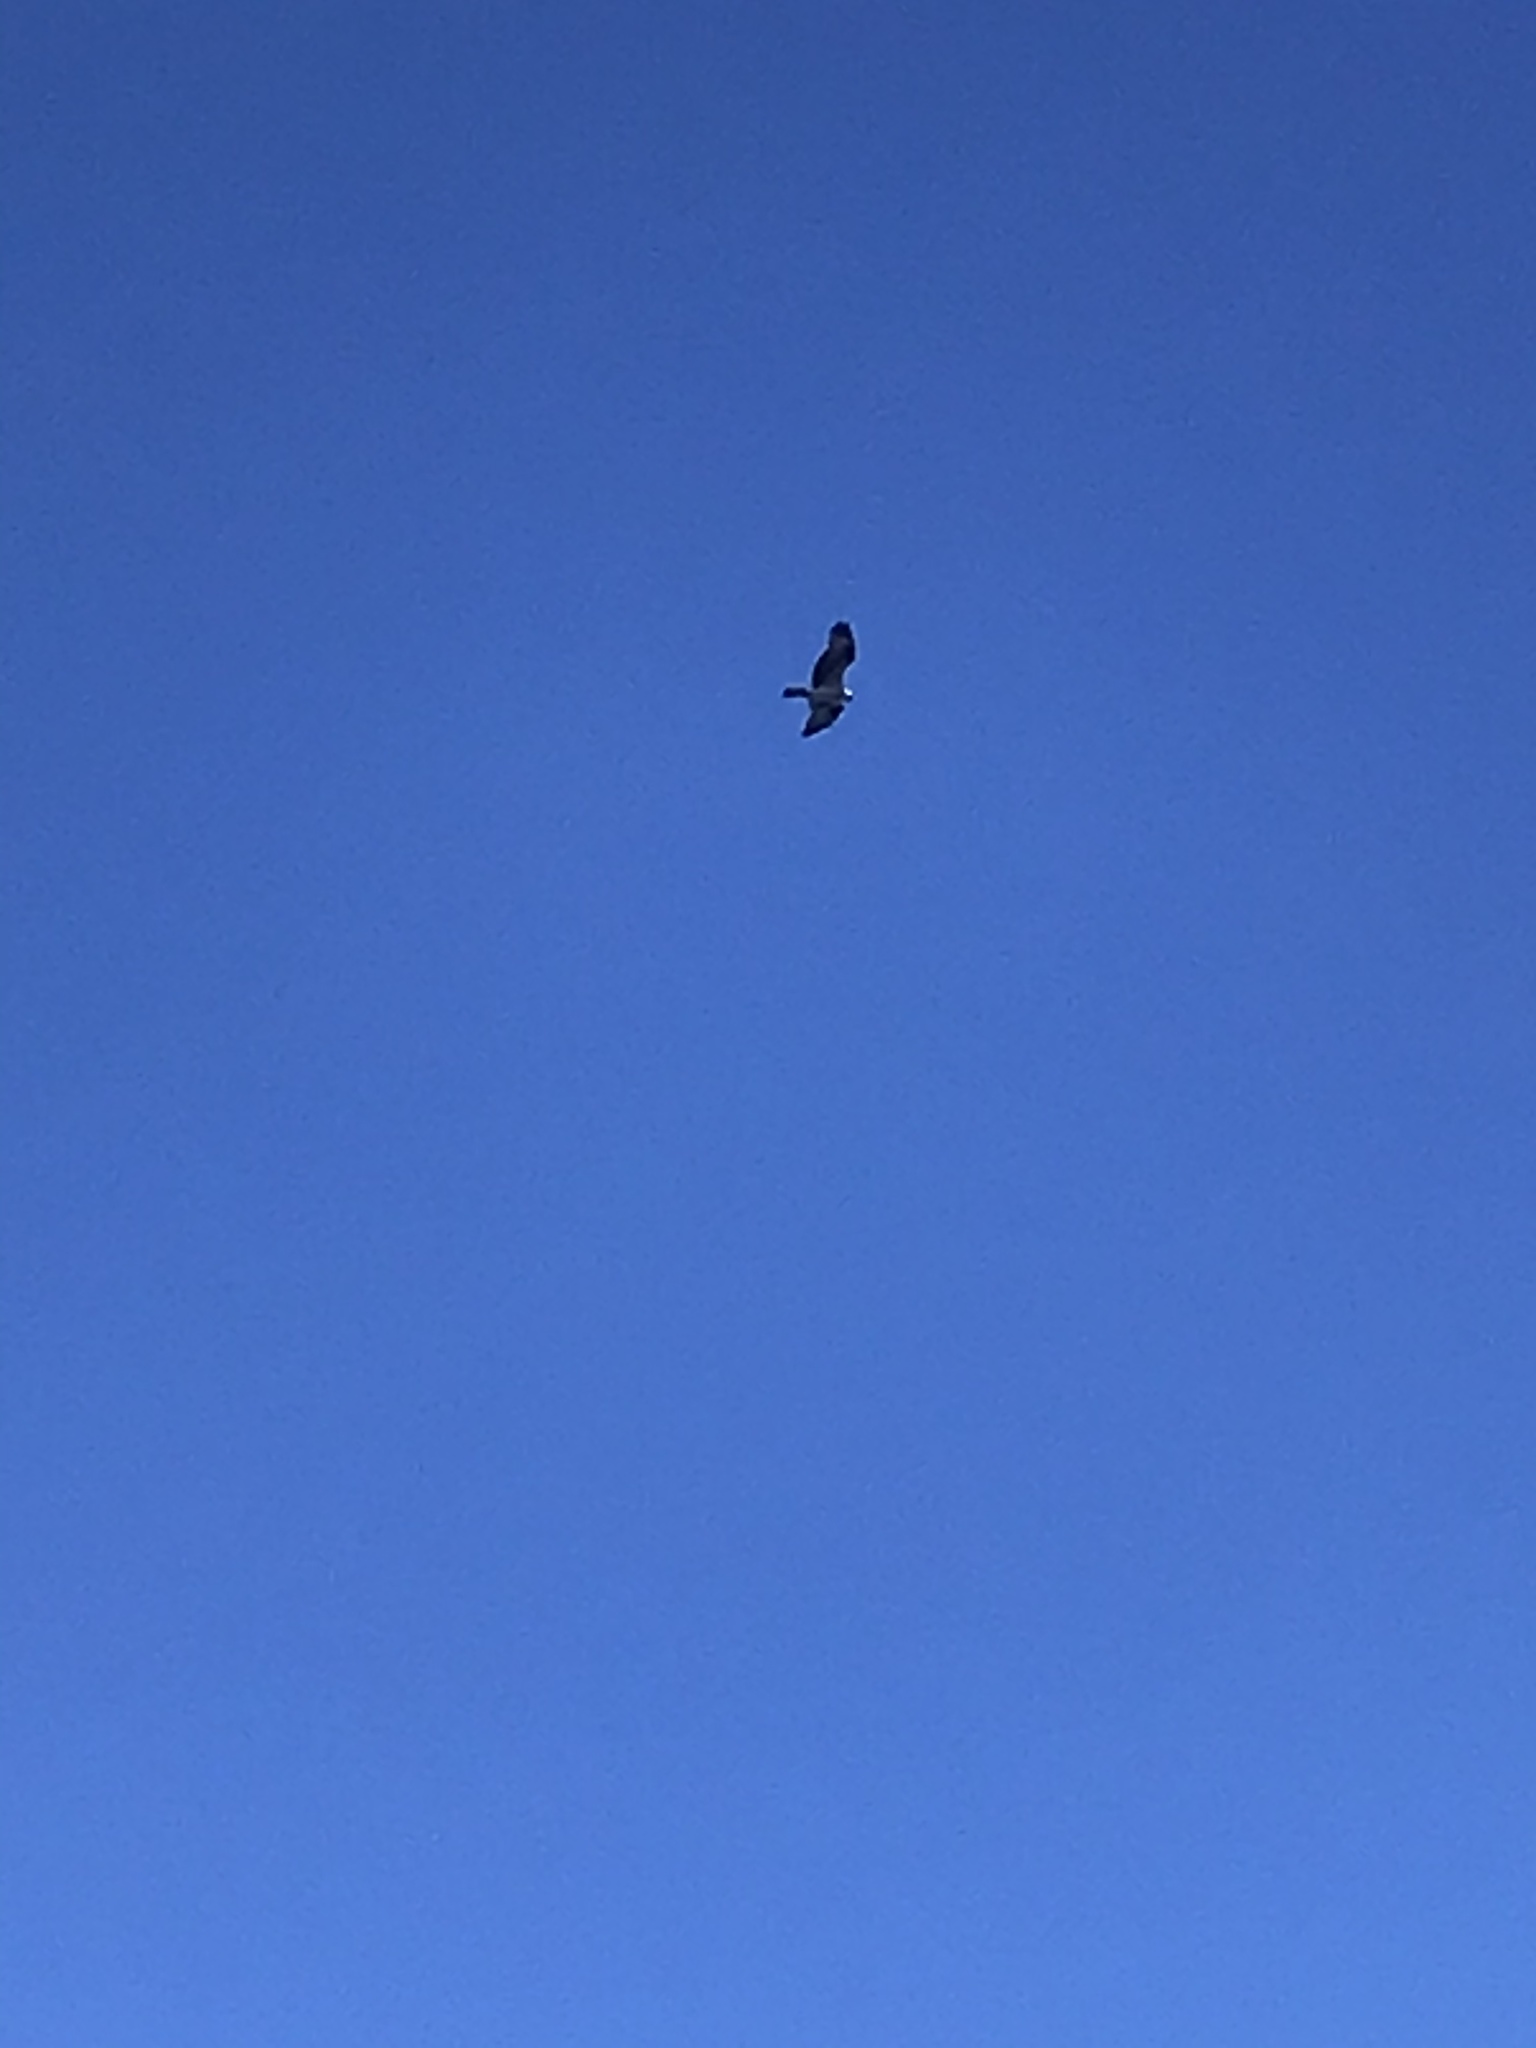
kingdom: Animalia
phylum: Chordata
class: Aves
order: Accipitriformes
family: Pandionidae
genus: Pandion
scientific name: Pandion haliaetus
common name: Osprey
